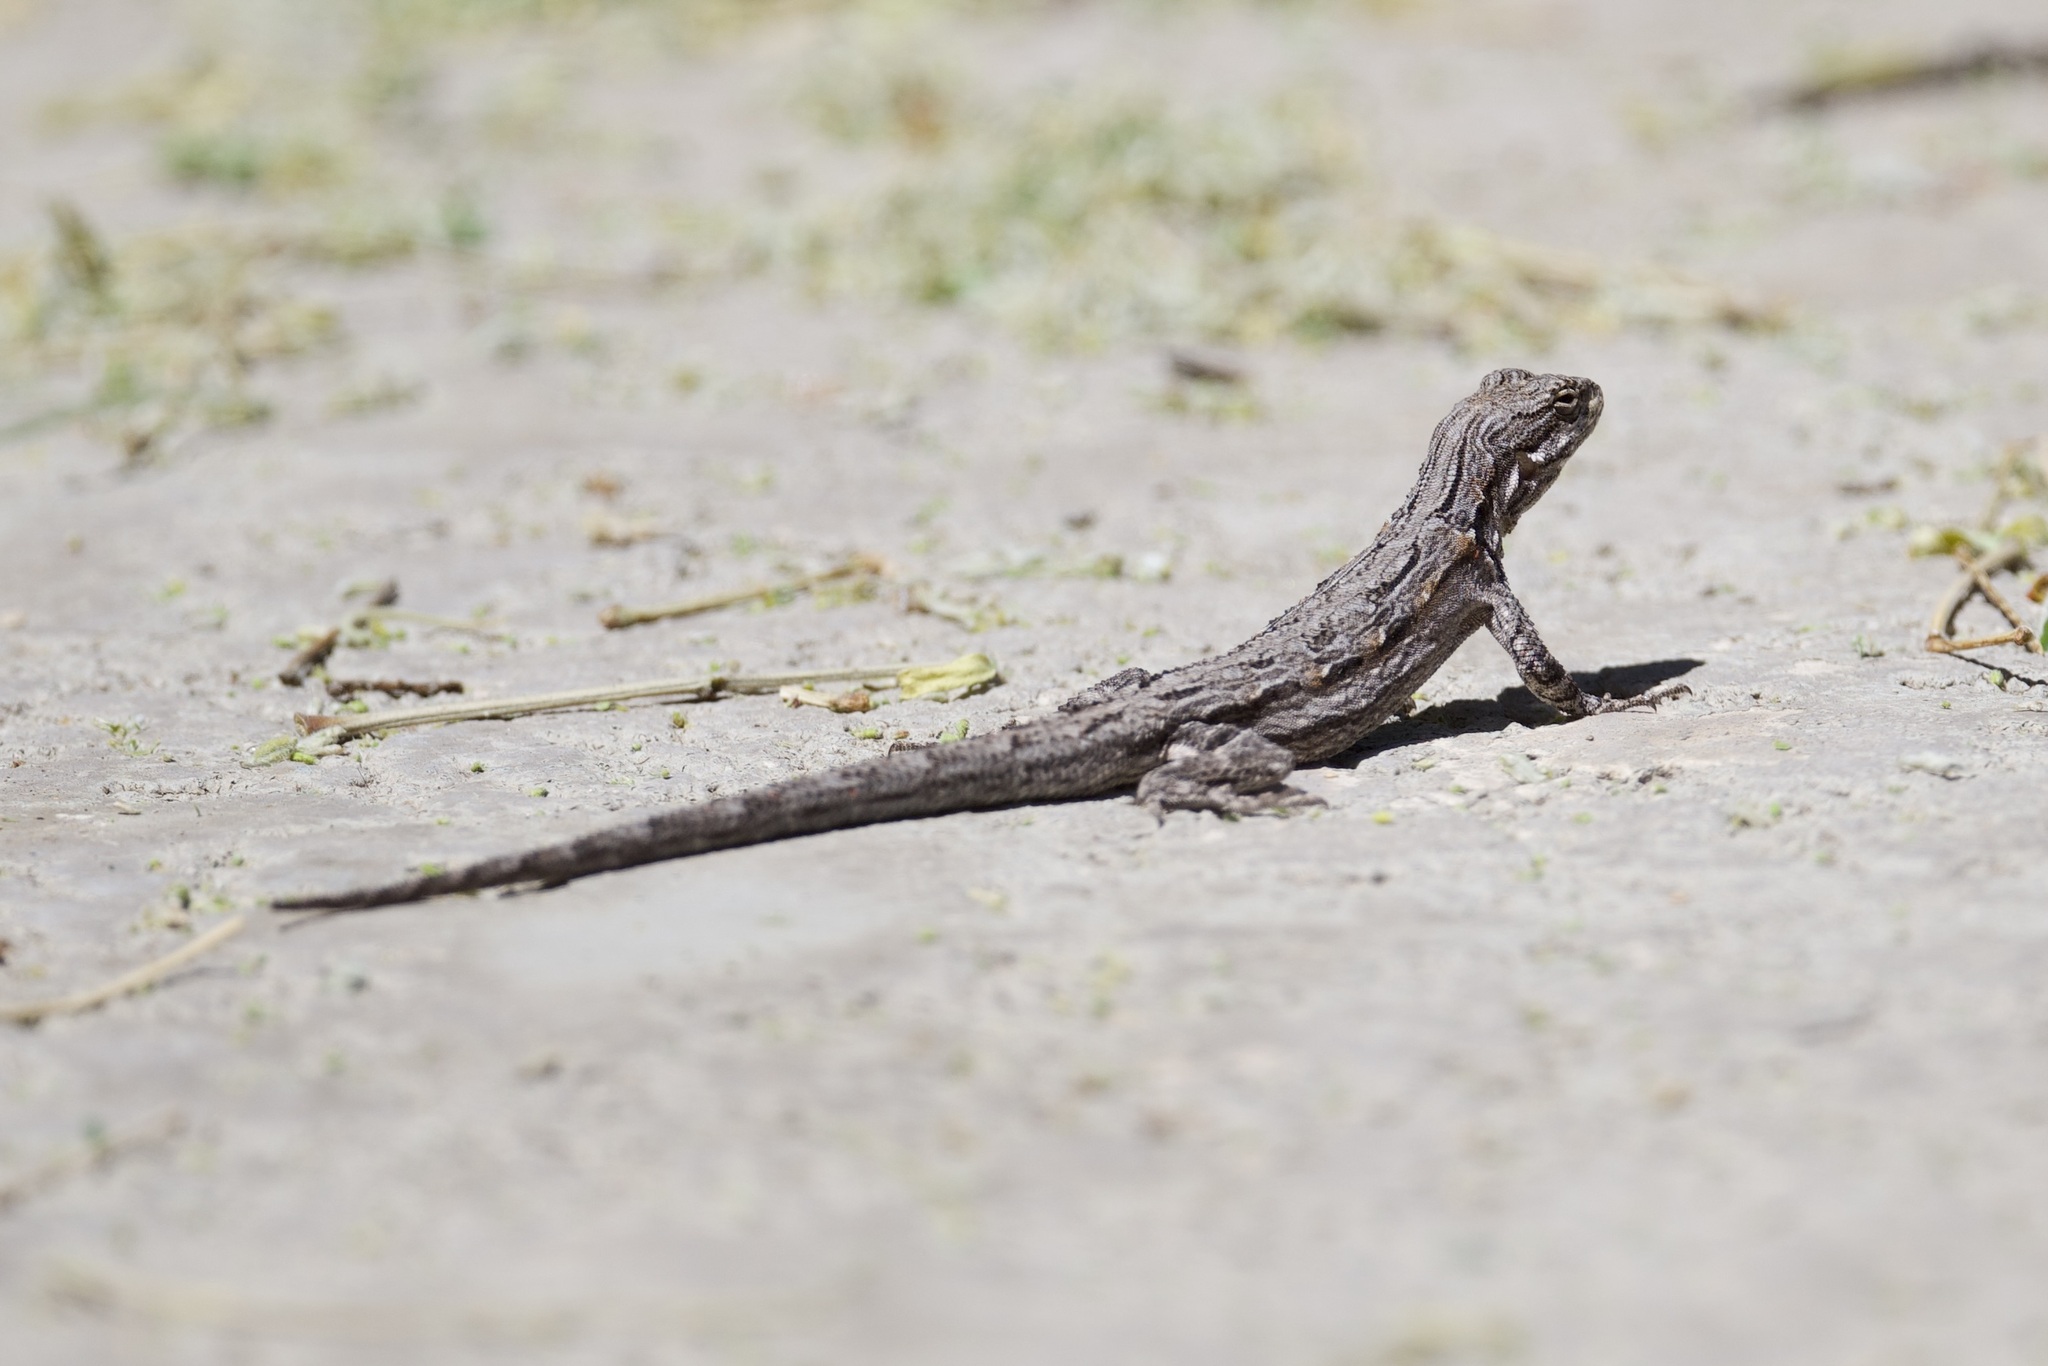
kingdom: Animalia
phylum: Chordata
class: Squamata
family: Phrynosomatidae
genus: Urosaurus
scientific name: Urosaurus ornatus
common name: Ornate tree lizard
